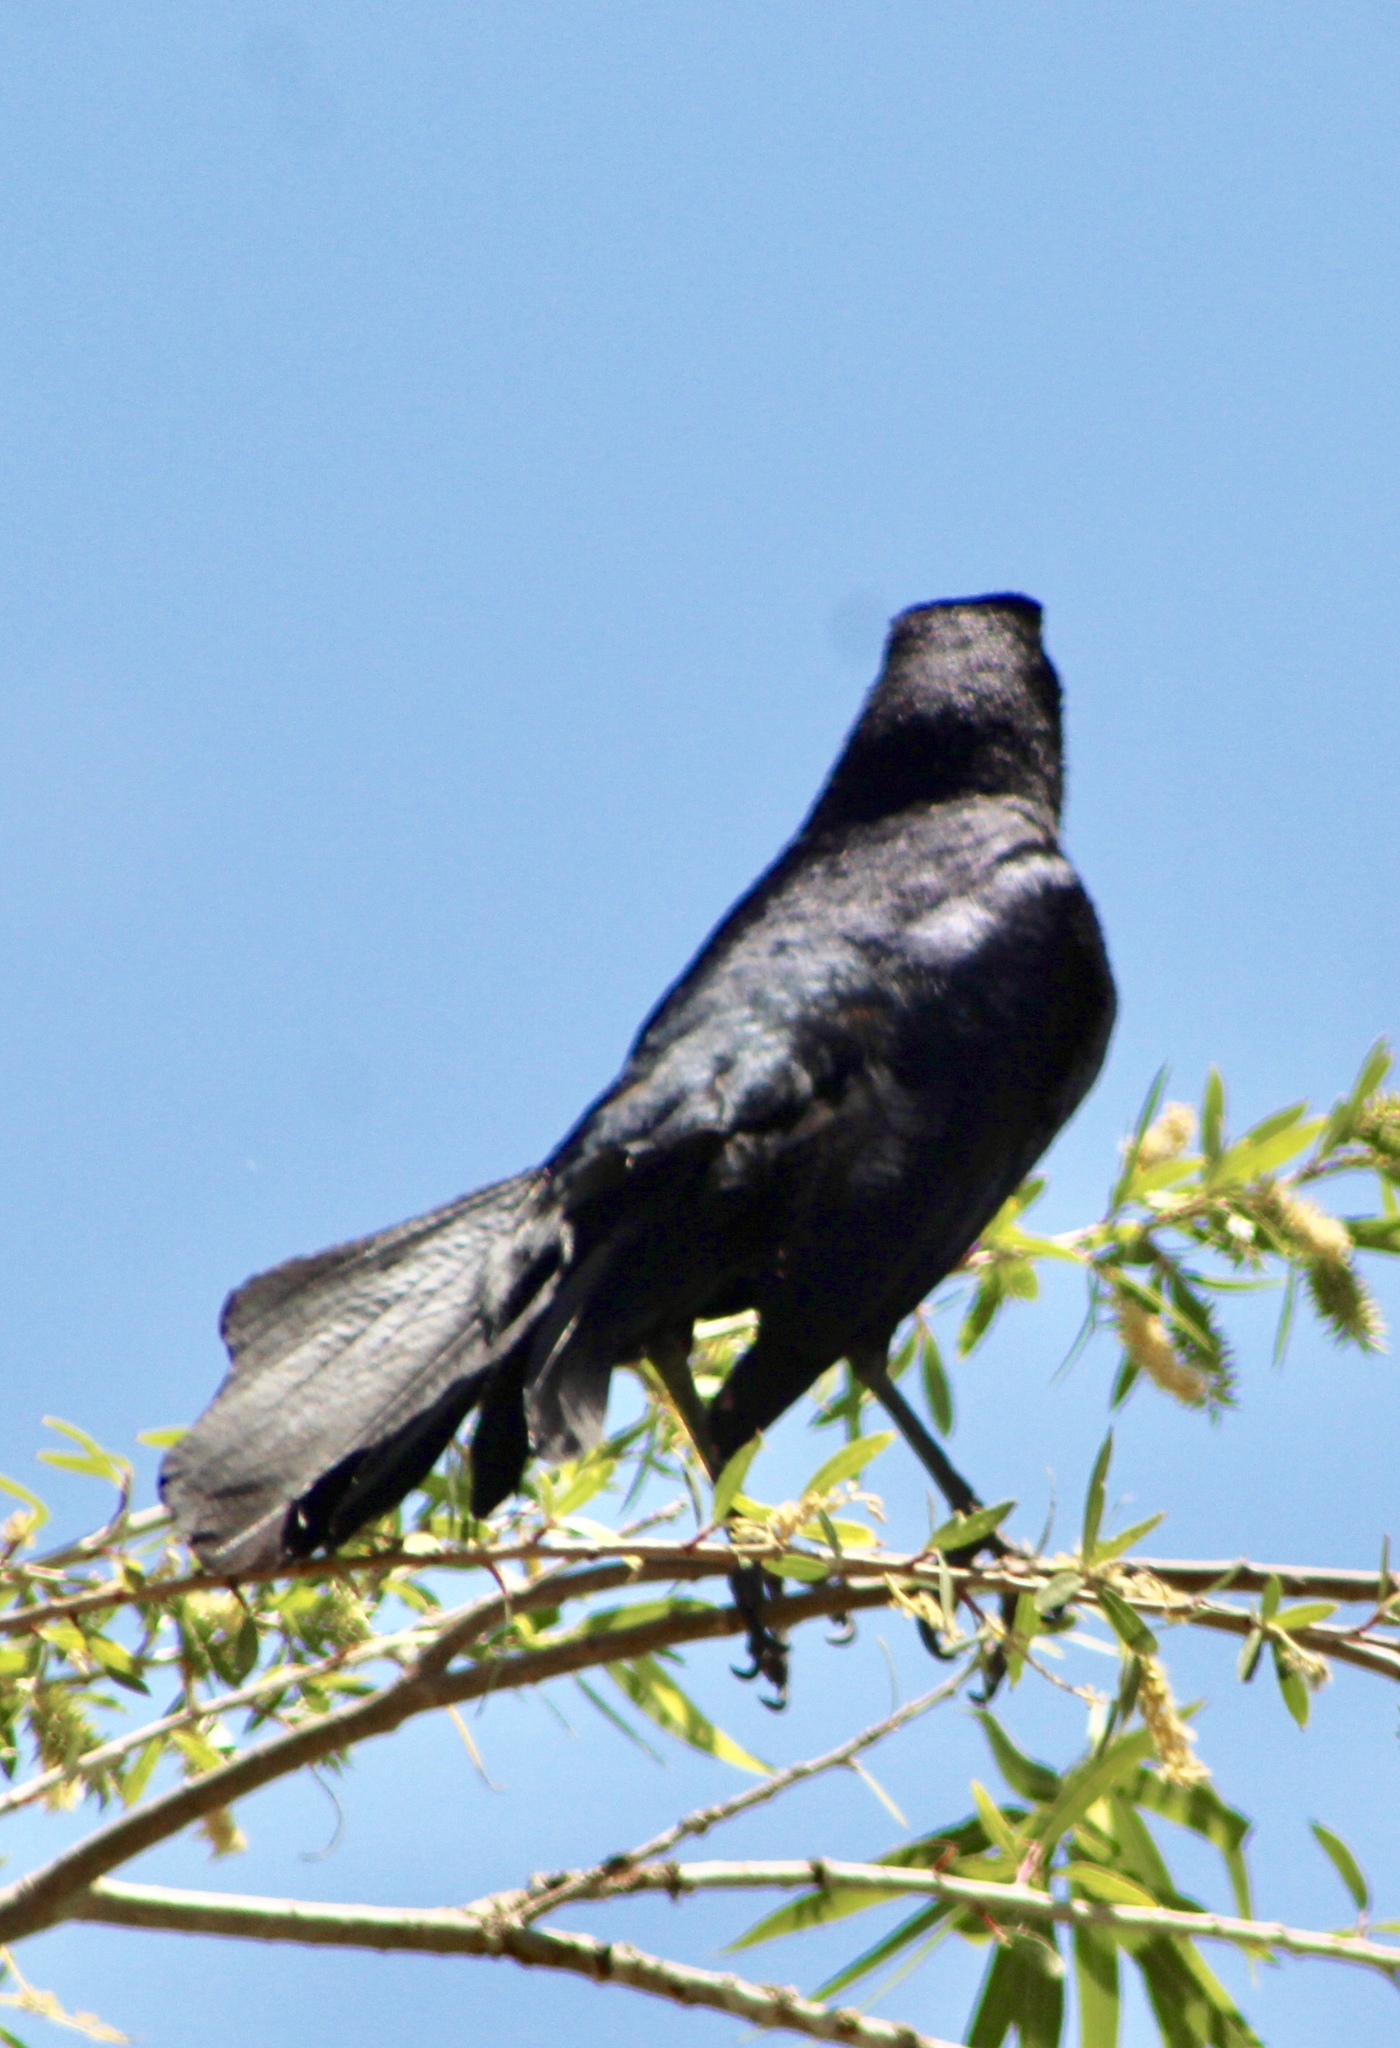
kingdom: Animalia
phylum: Chordata
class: Aves
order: Passeriformes
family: Icteridae
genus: Quiscalus
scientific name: Quiscalus mexicanus
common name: Great-tailed grackle
